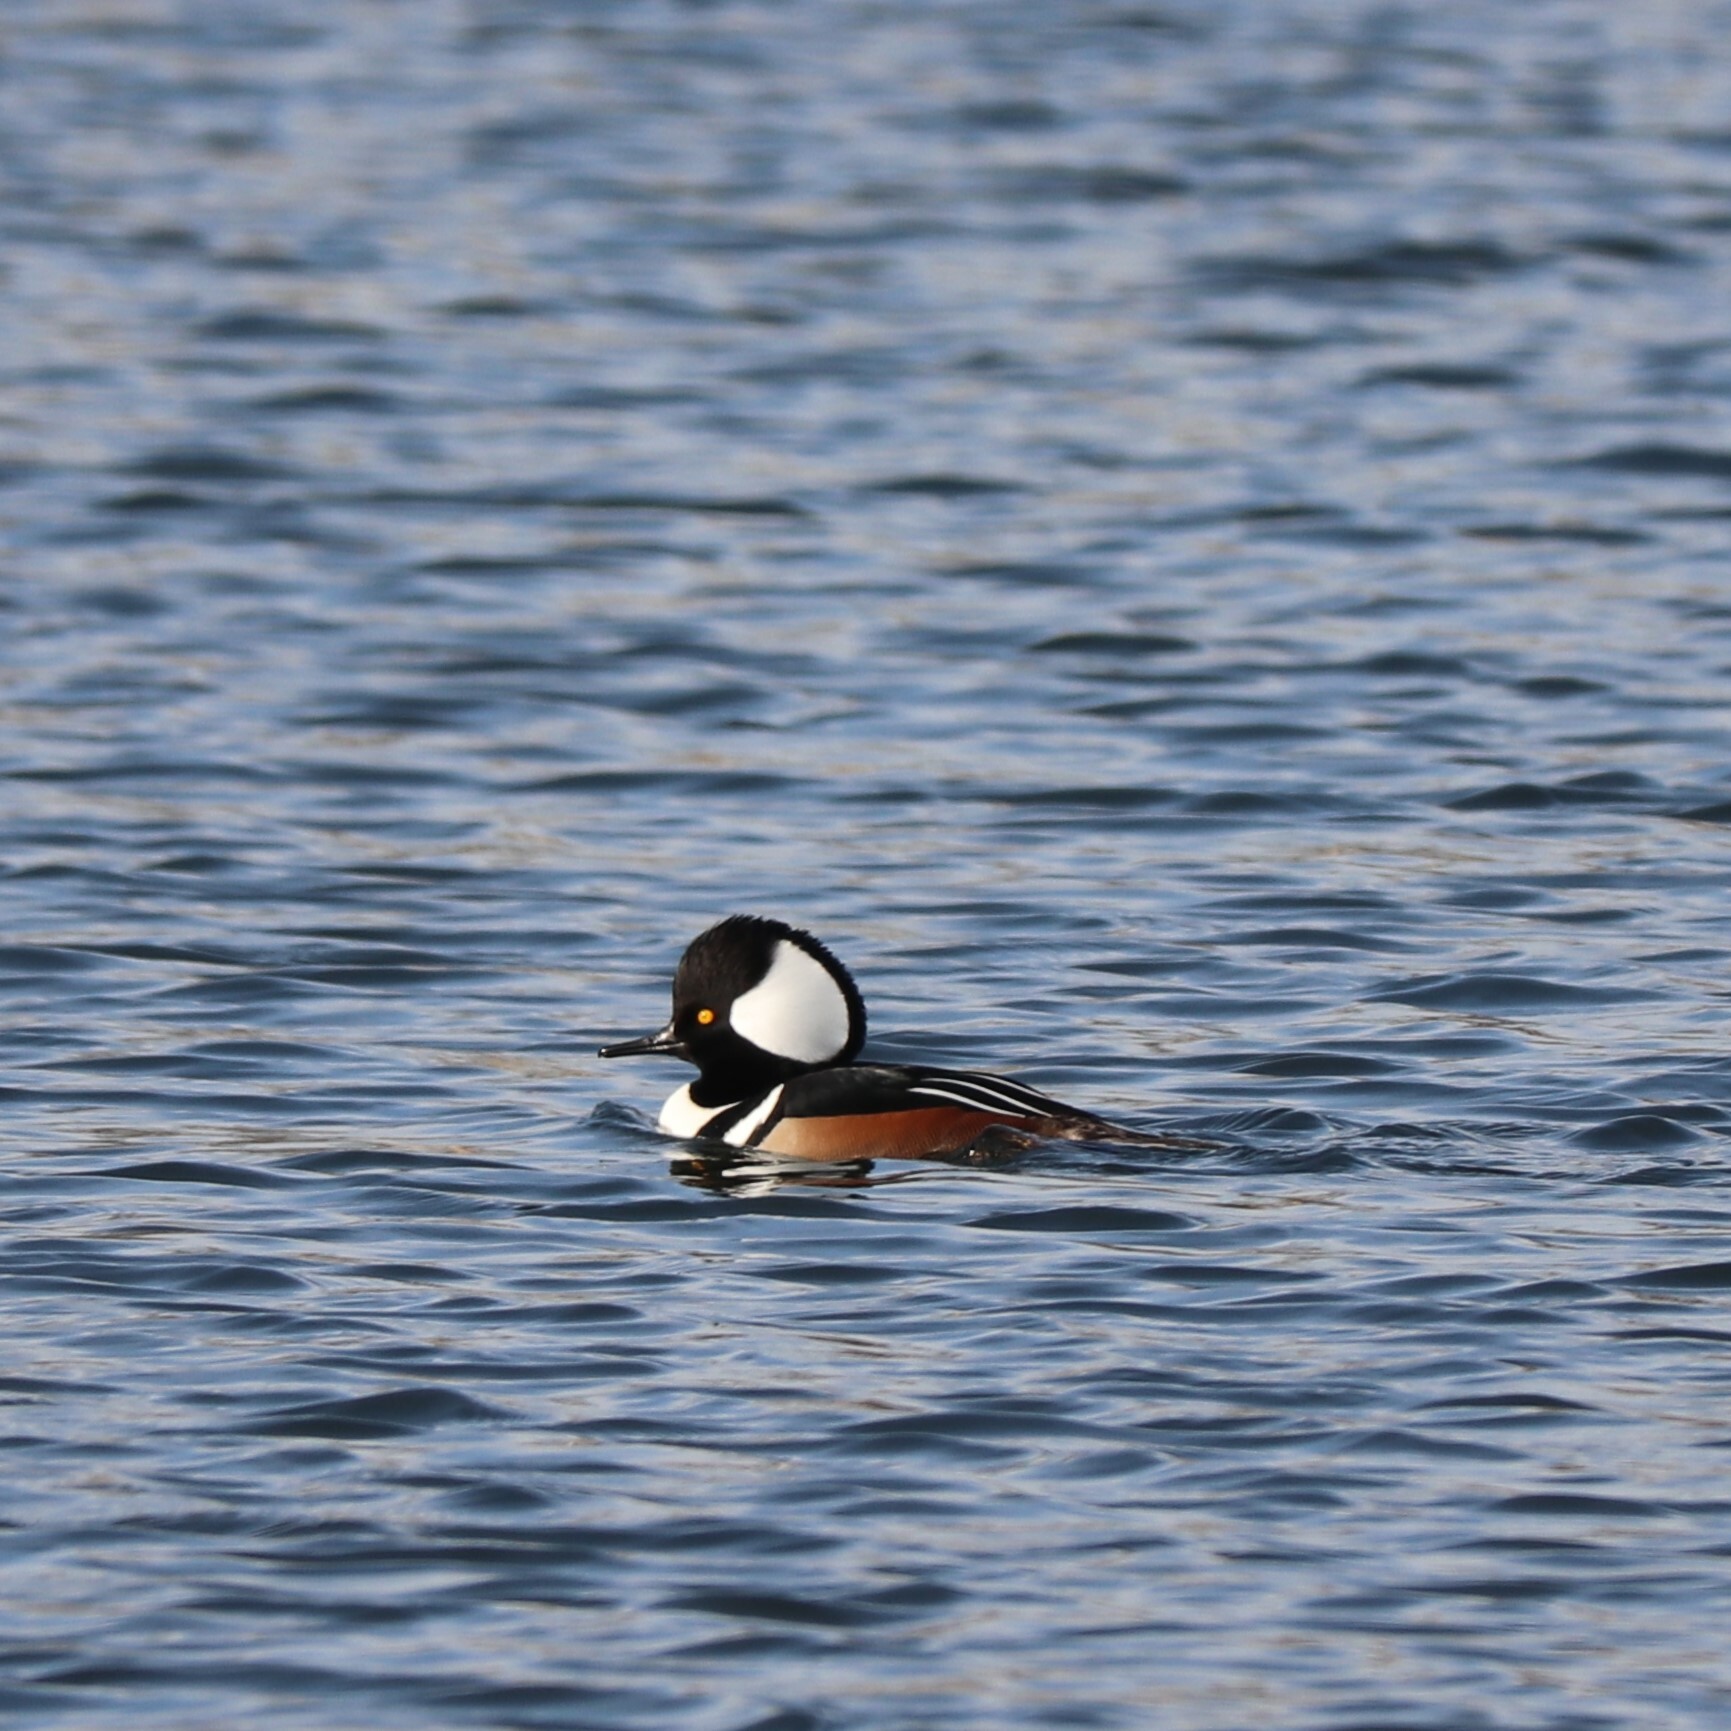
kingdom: Animalia
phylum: Chordata
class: Aves
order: Anseriformes
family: Anatidae
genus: Lophodytes
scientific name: Lophodytes cucullatus
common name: Hooded merganser
